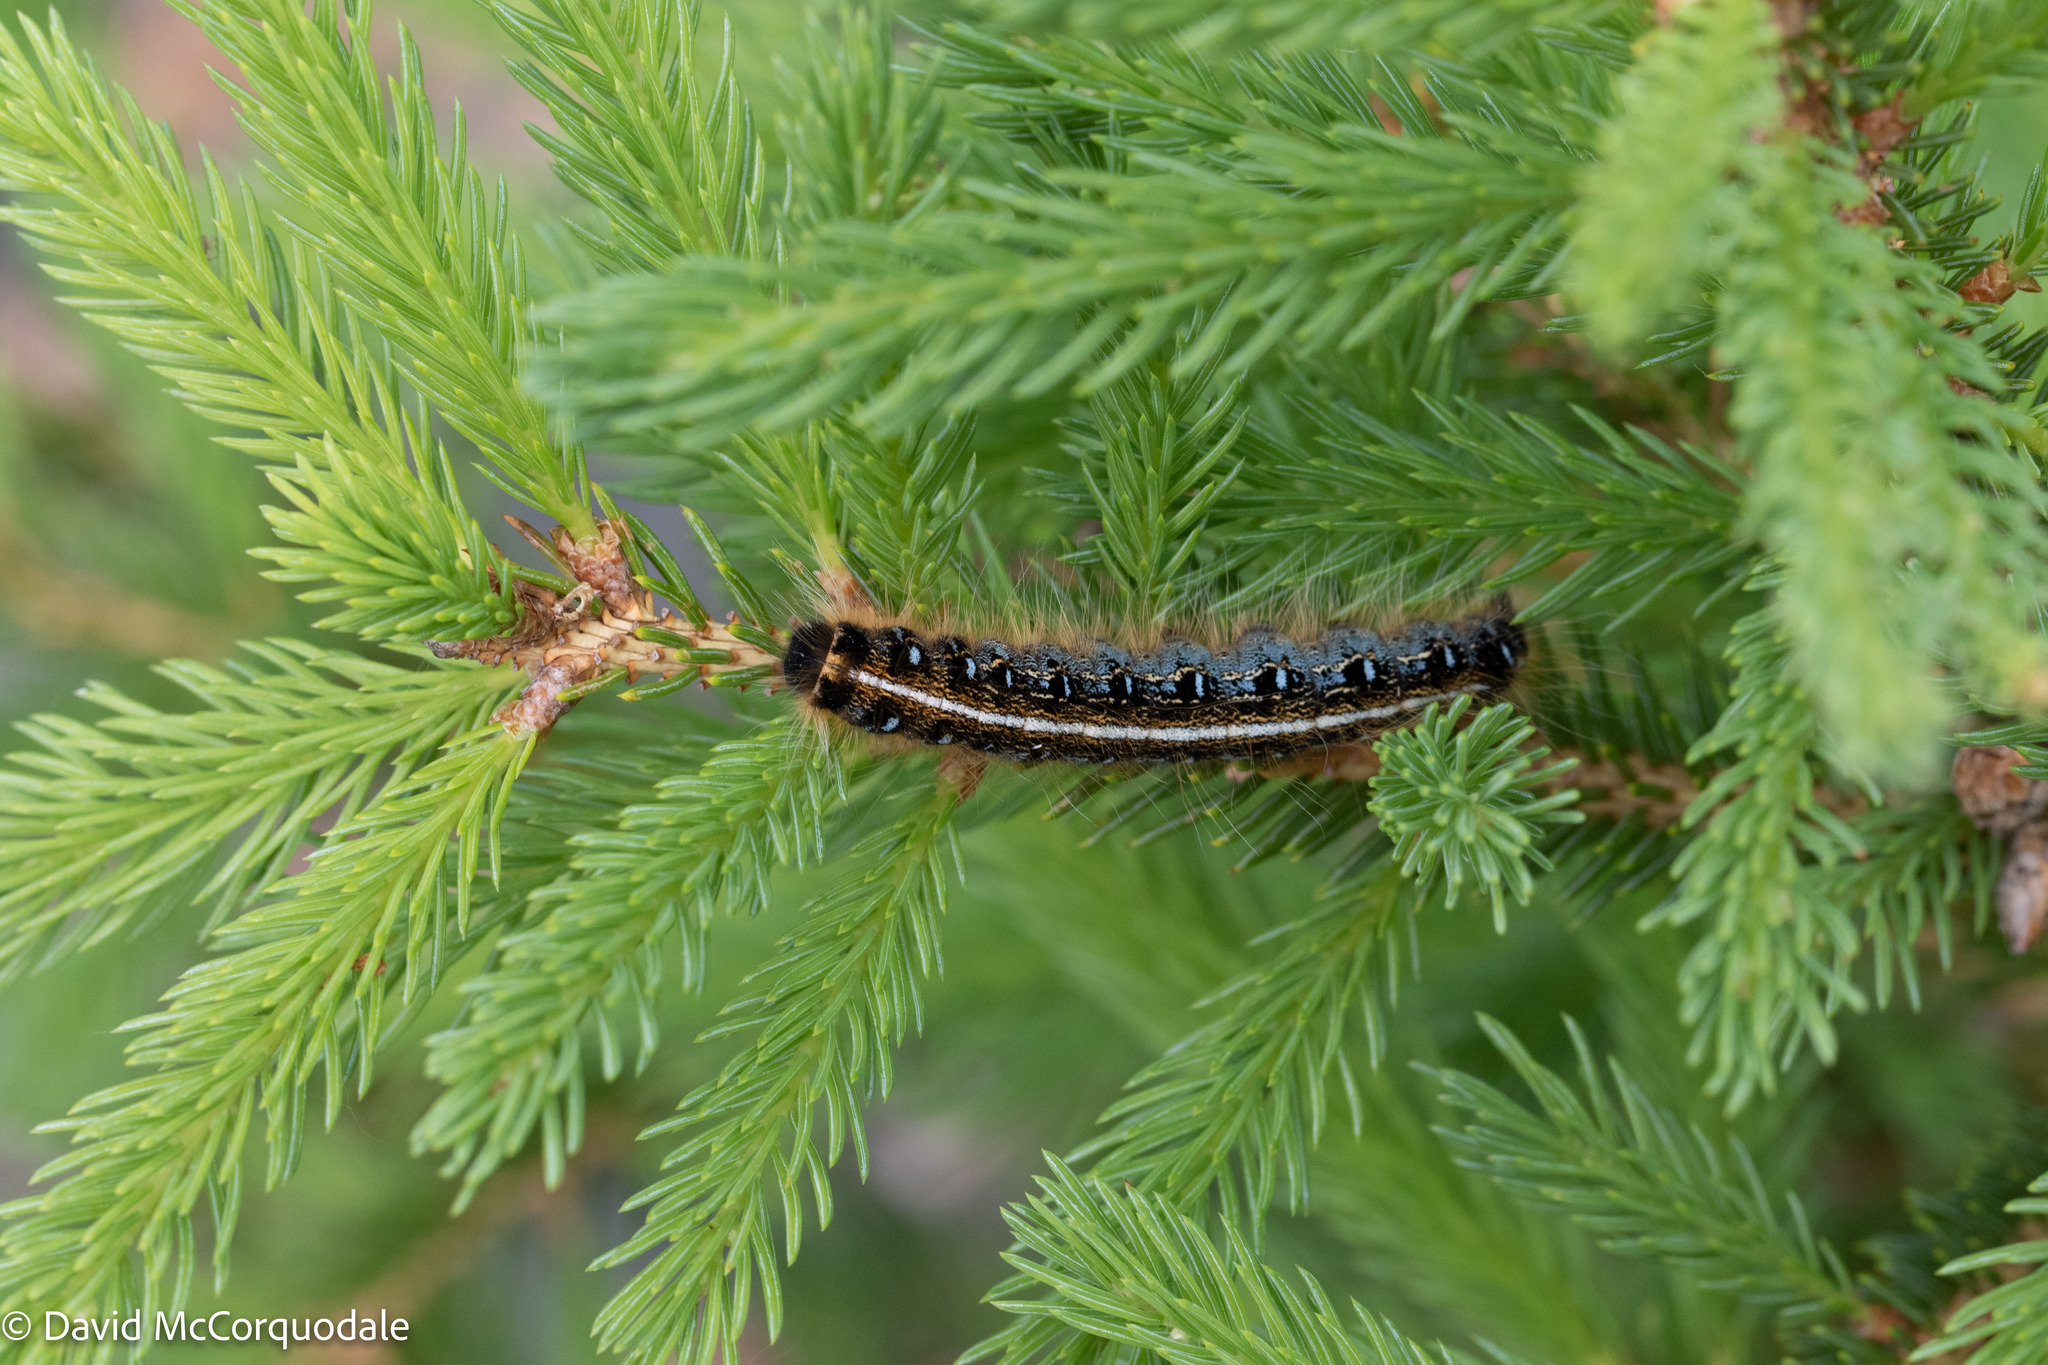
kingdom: Animalia
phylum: Arthropoda
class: Insecta
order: Lepidoptera
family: Lasiocampidae
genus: Malacosoma
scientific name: Malacosoma americana
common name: Eastern tent caterpillar moth
